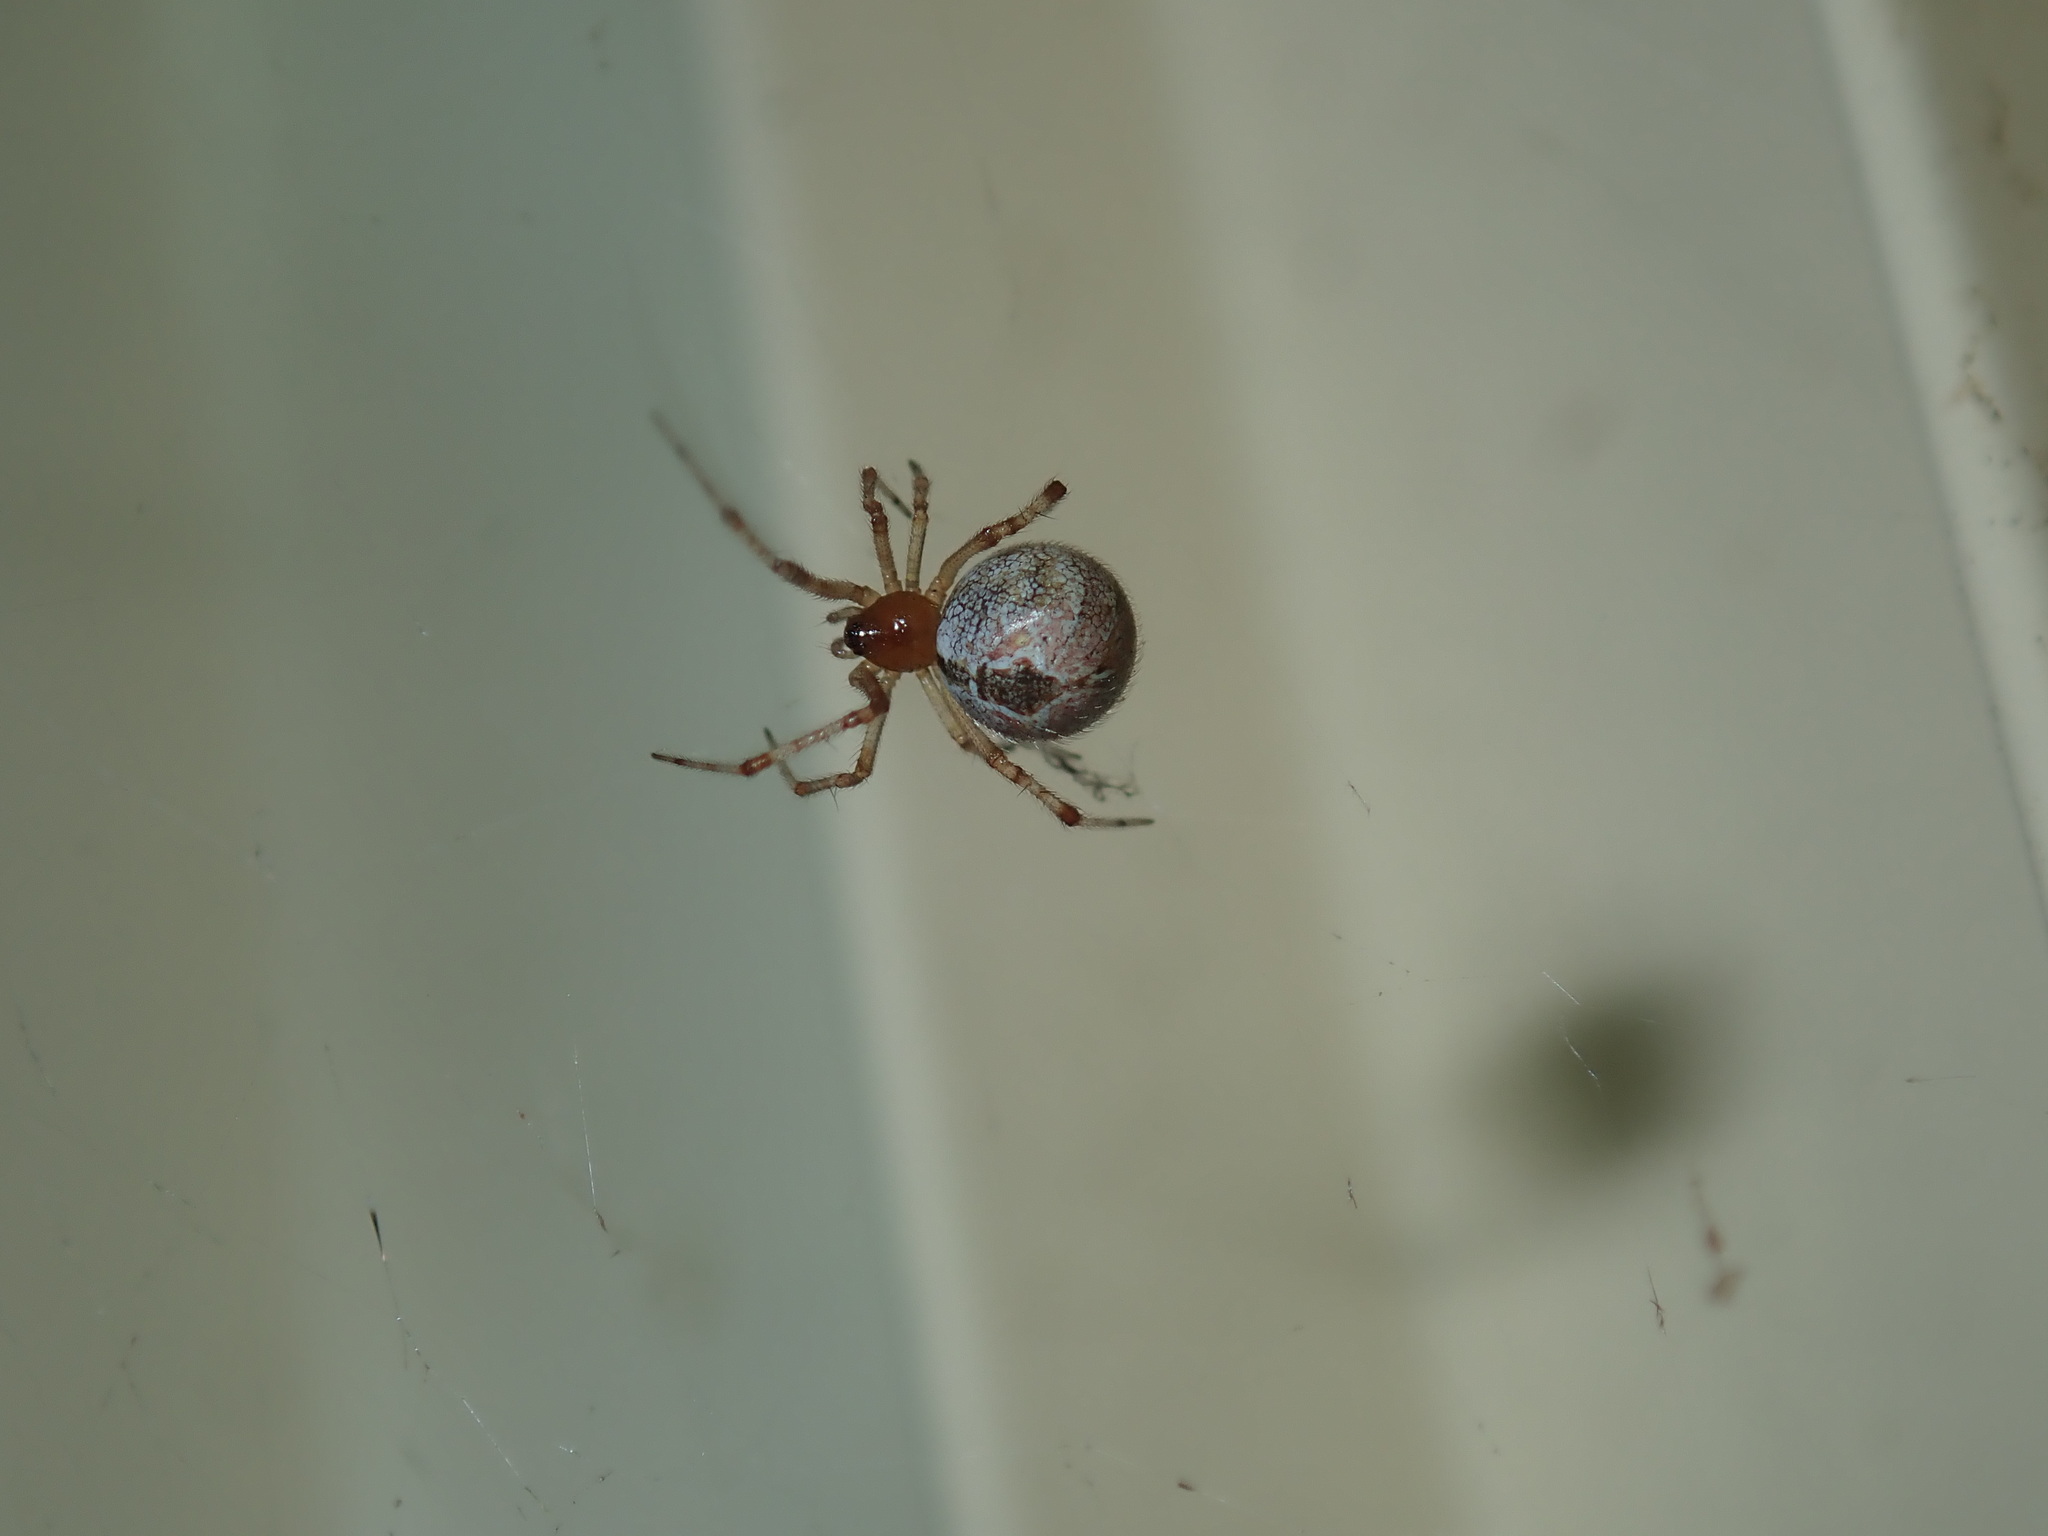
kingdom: Animalia
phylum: Arthropoda
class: Arachnida
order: Araneae
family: Theridiidae
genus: Cryptachaea
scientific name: Cryptachaea veruculata
